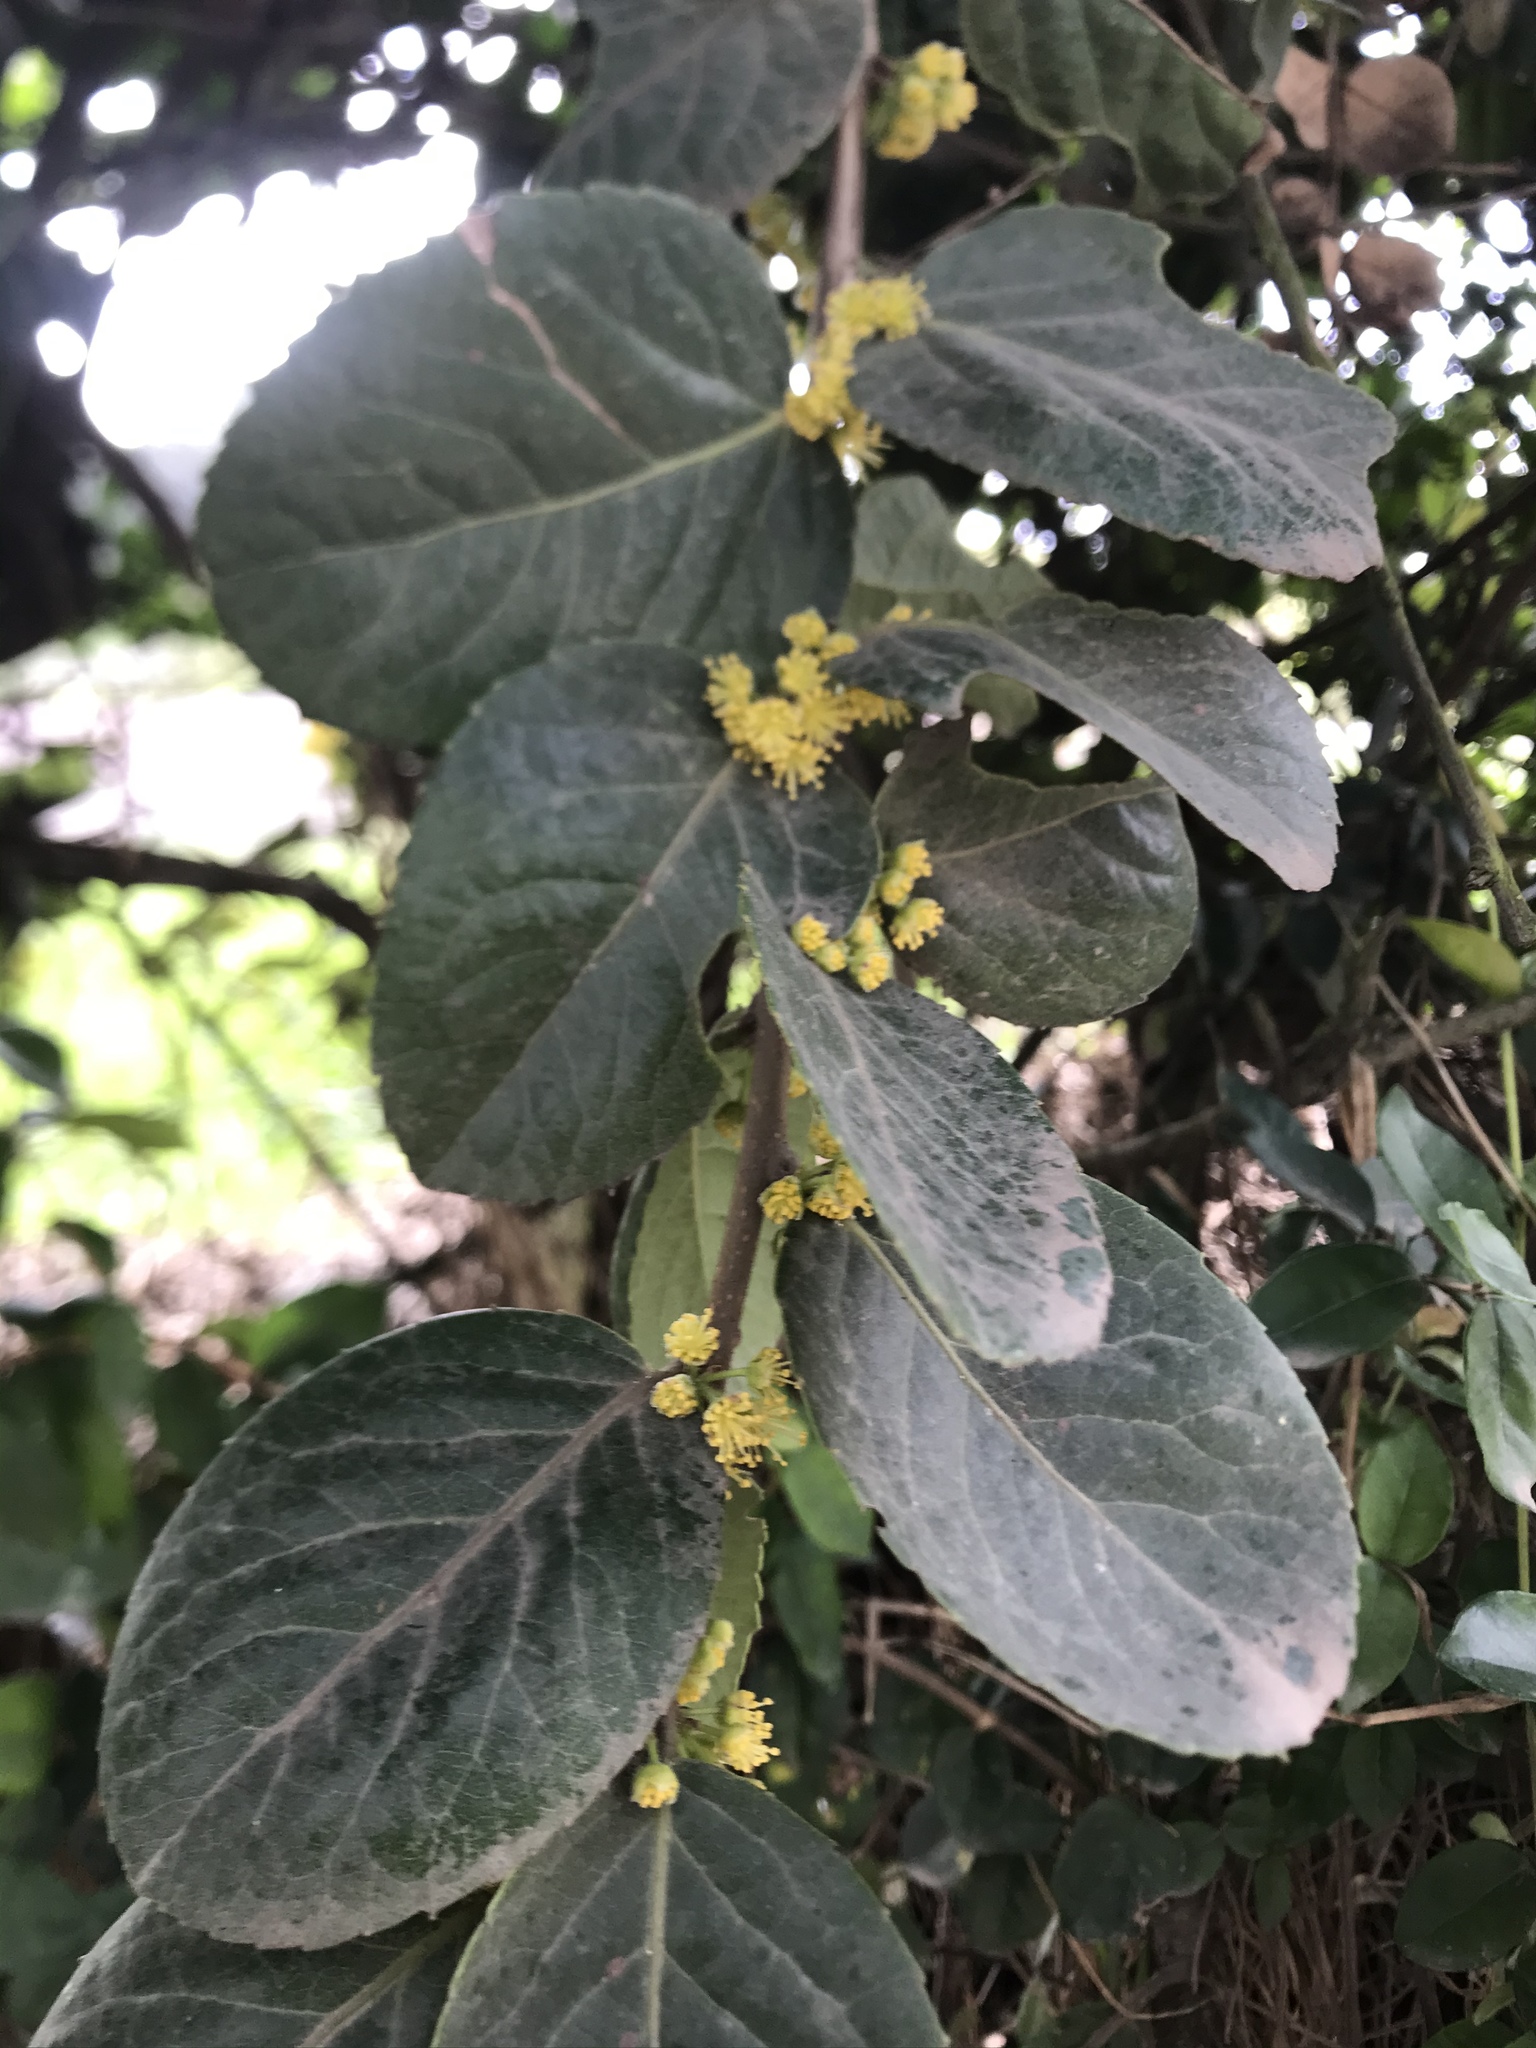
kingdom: Plantae
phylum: Tracheophyta
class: Magnoliopsida
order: Malpighiales
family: Salicaceae
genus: Xylosma
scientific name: Xylosma spiculifera
